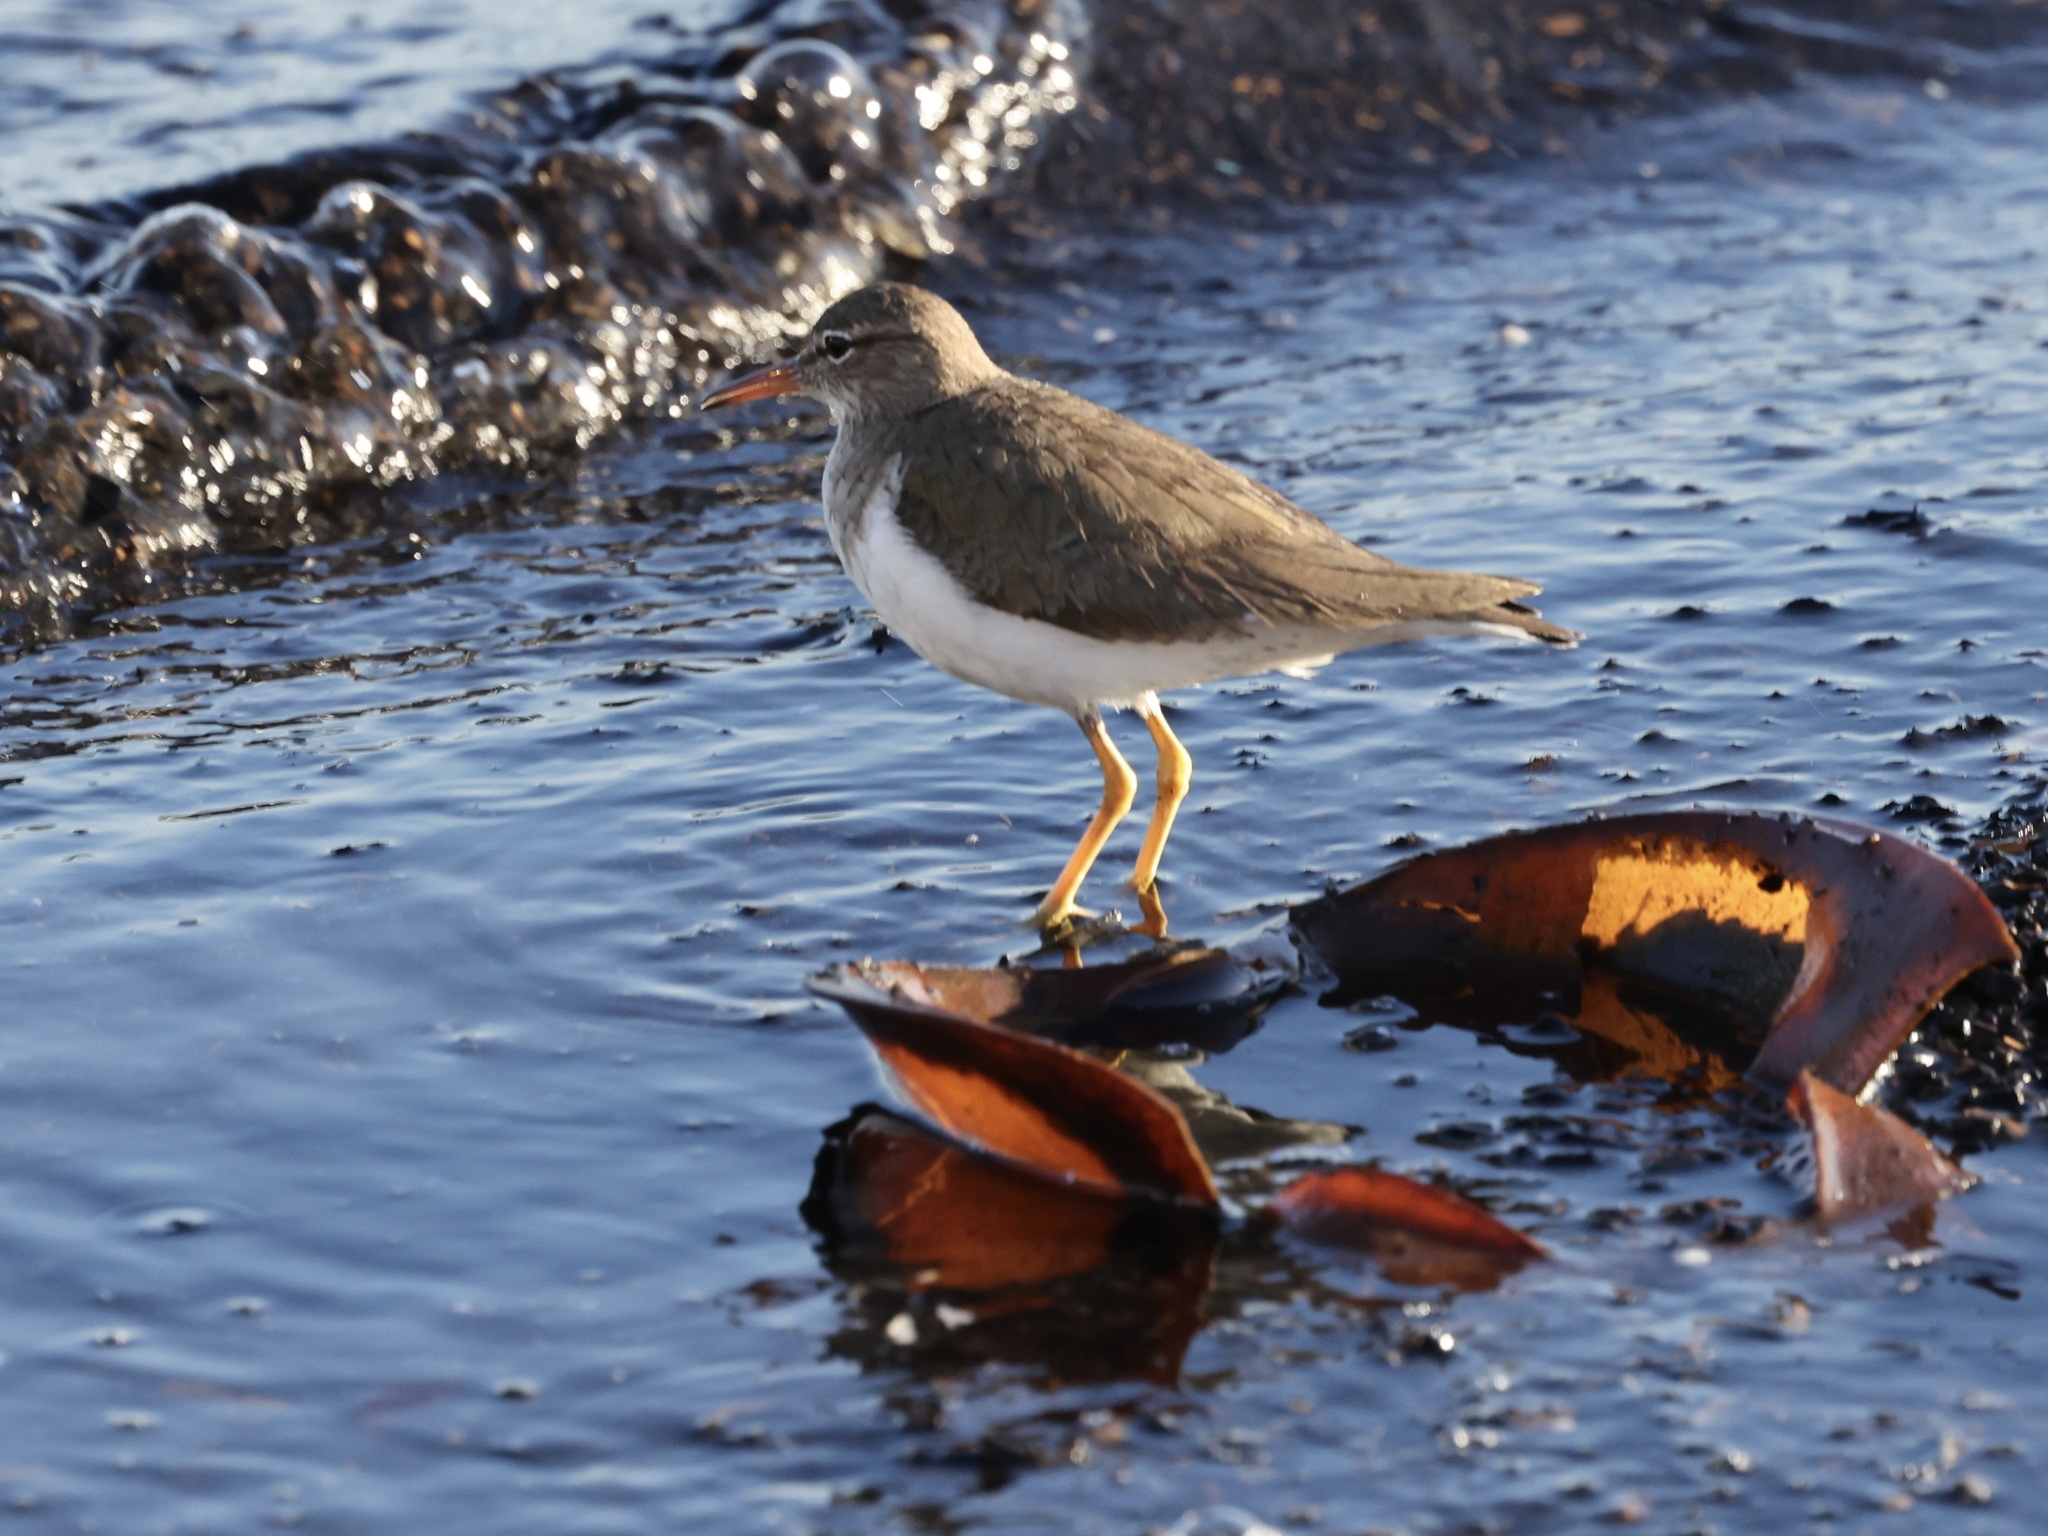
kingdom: Animalia
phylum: Chordata
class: Aves
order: Charadriiformes
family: Scolopacidae
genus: Actitis
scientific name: Actitis macularius
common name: Spotted sandpiper
